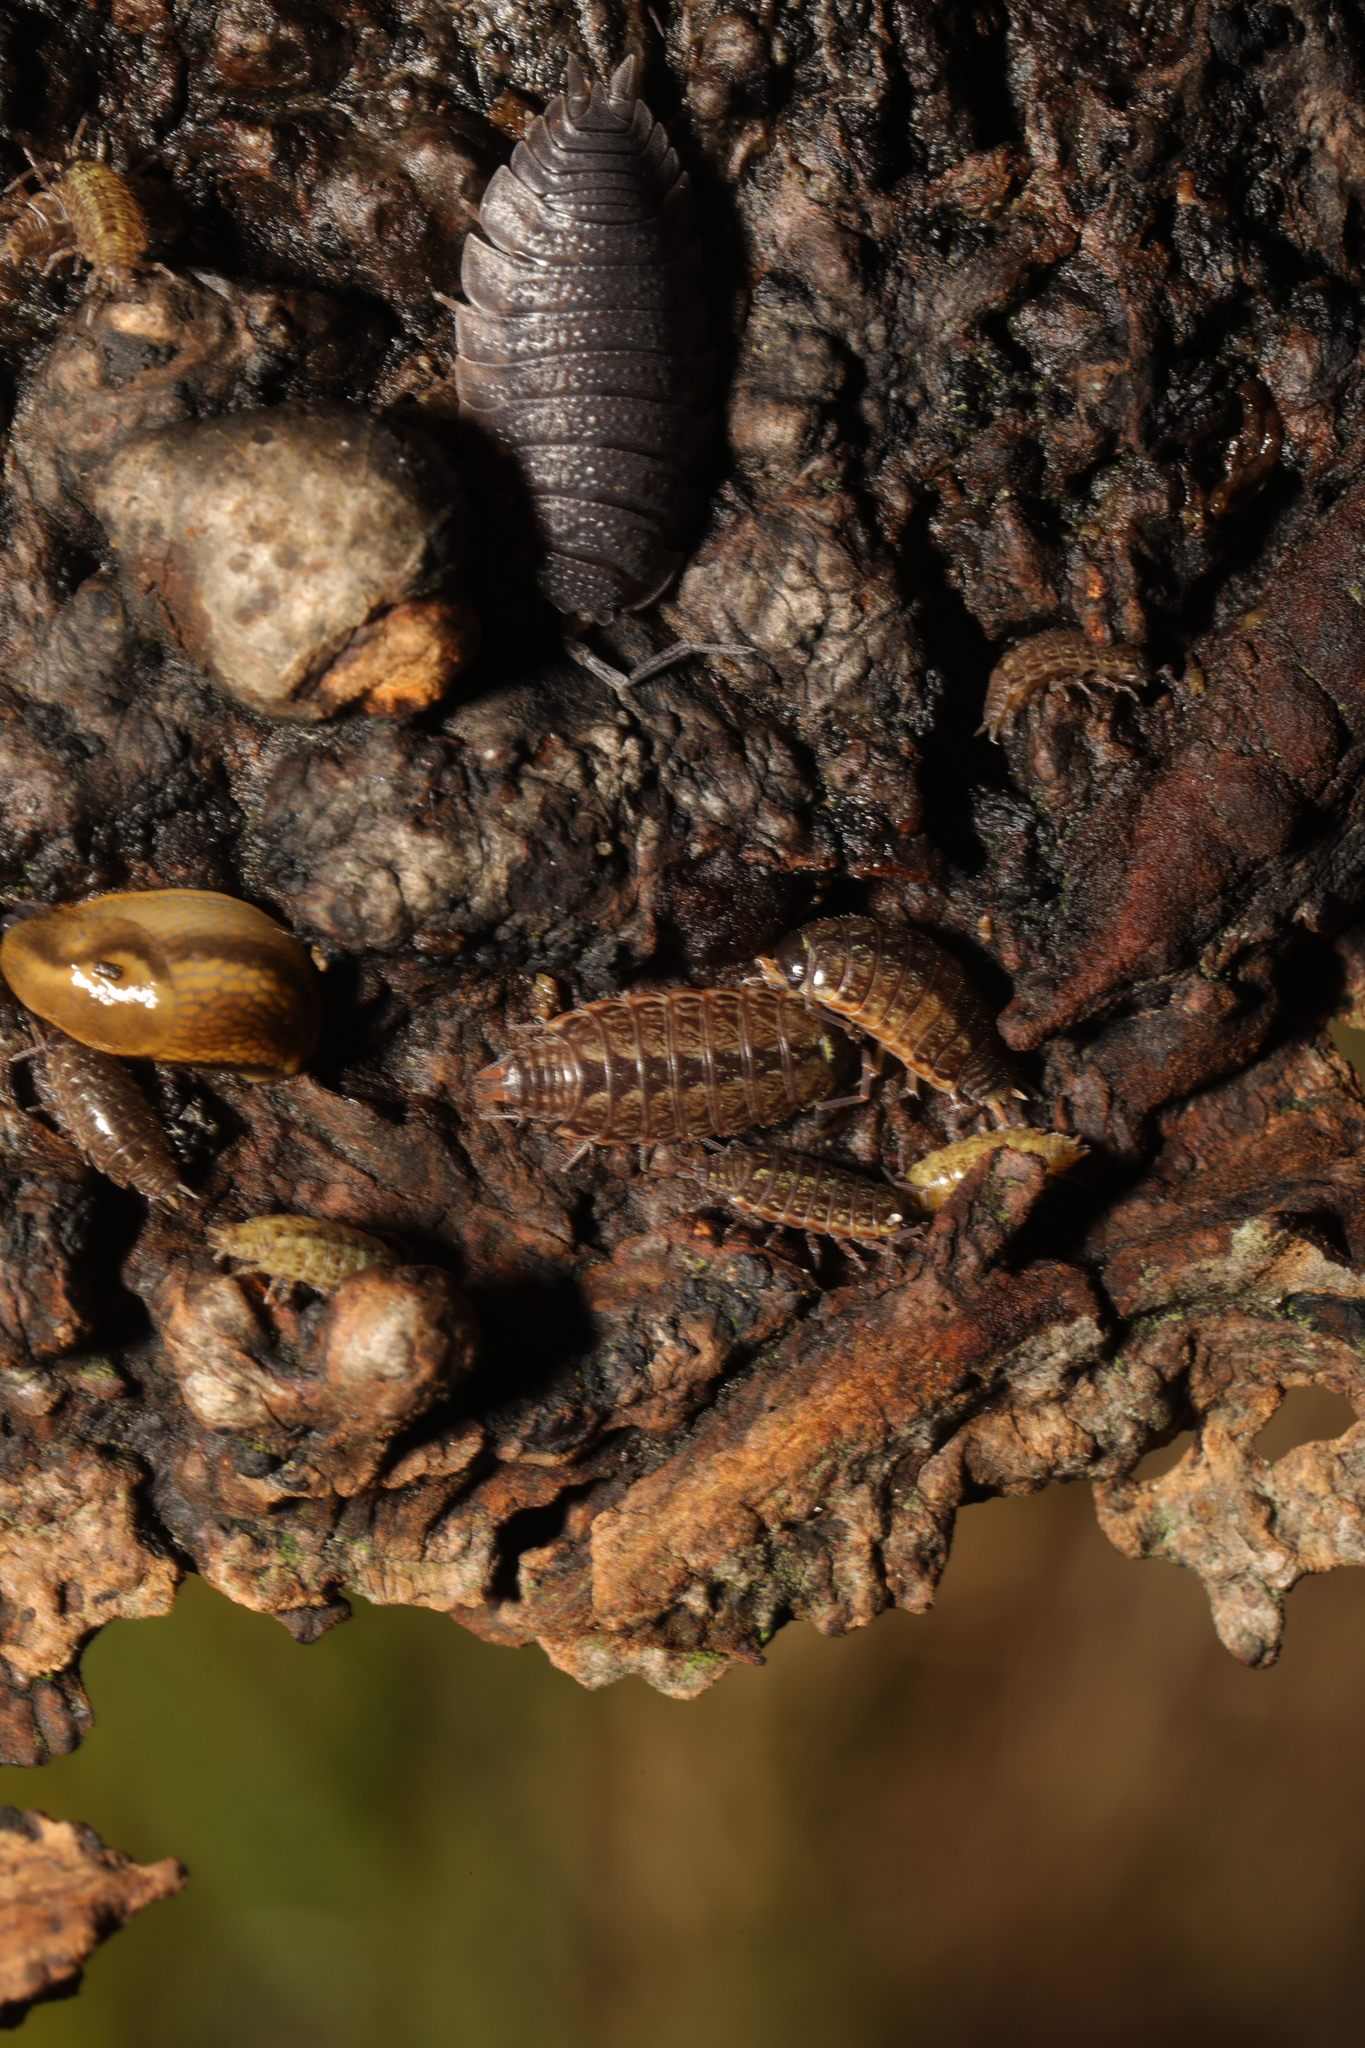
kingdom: Animalia
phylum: Arthropoda
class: Malacostraca
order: Isopoda
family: Porcellionidae
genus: Porcellio
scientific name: Porcellio scaber
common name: Common rough woodlouse
